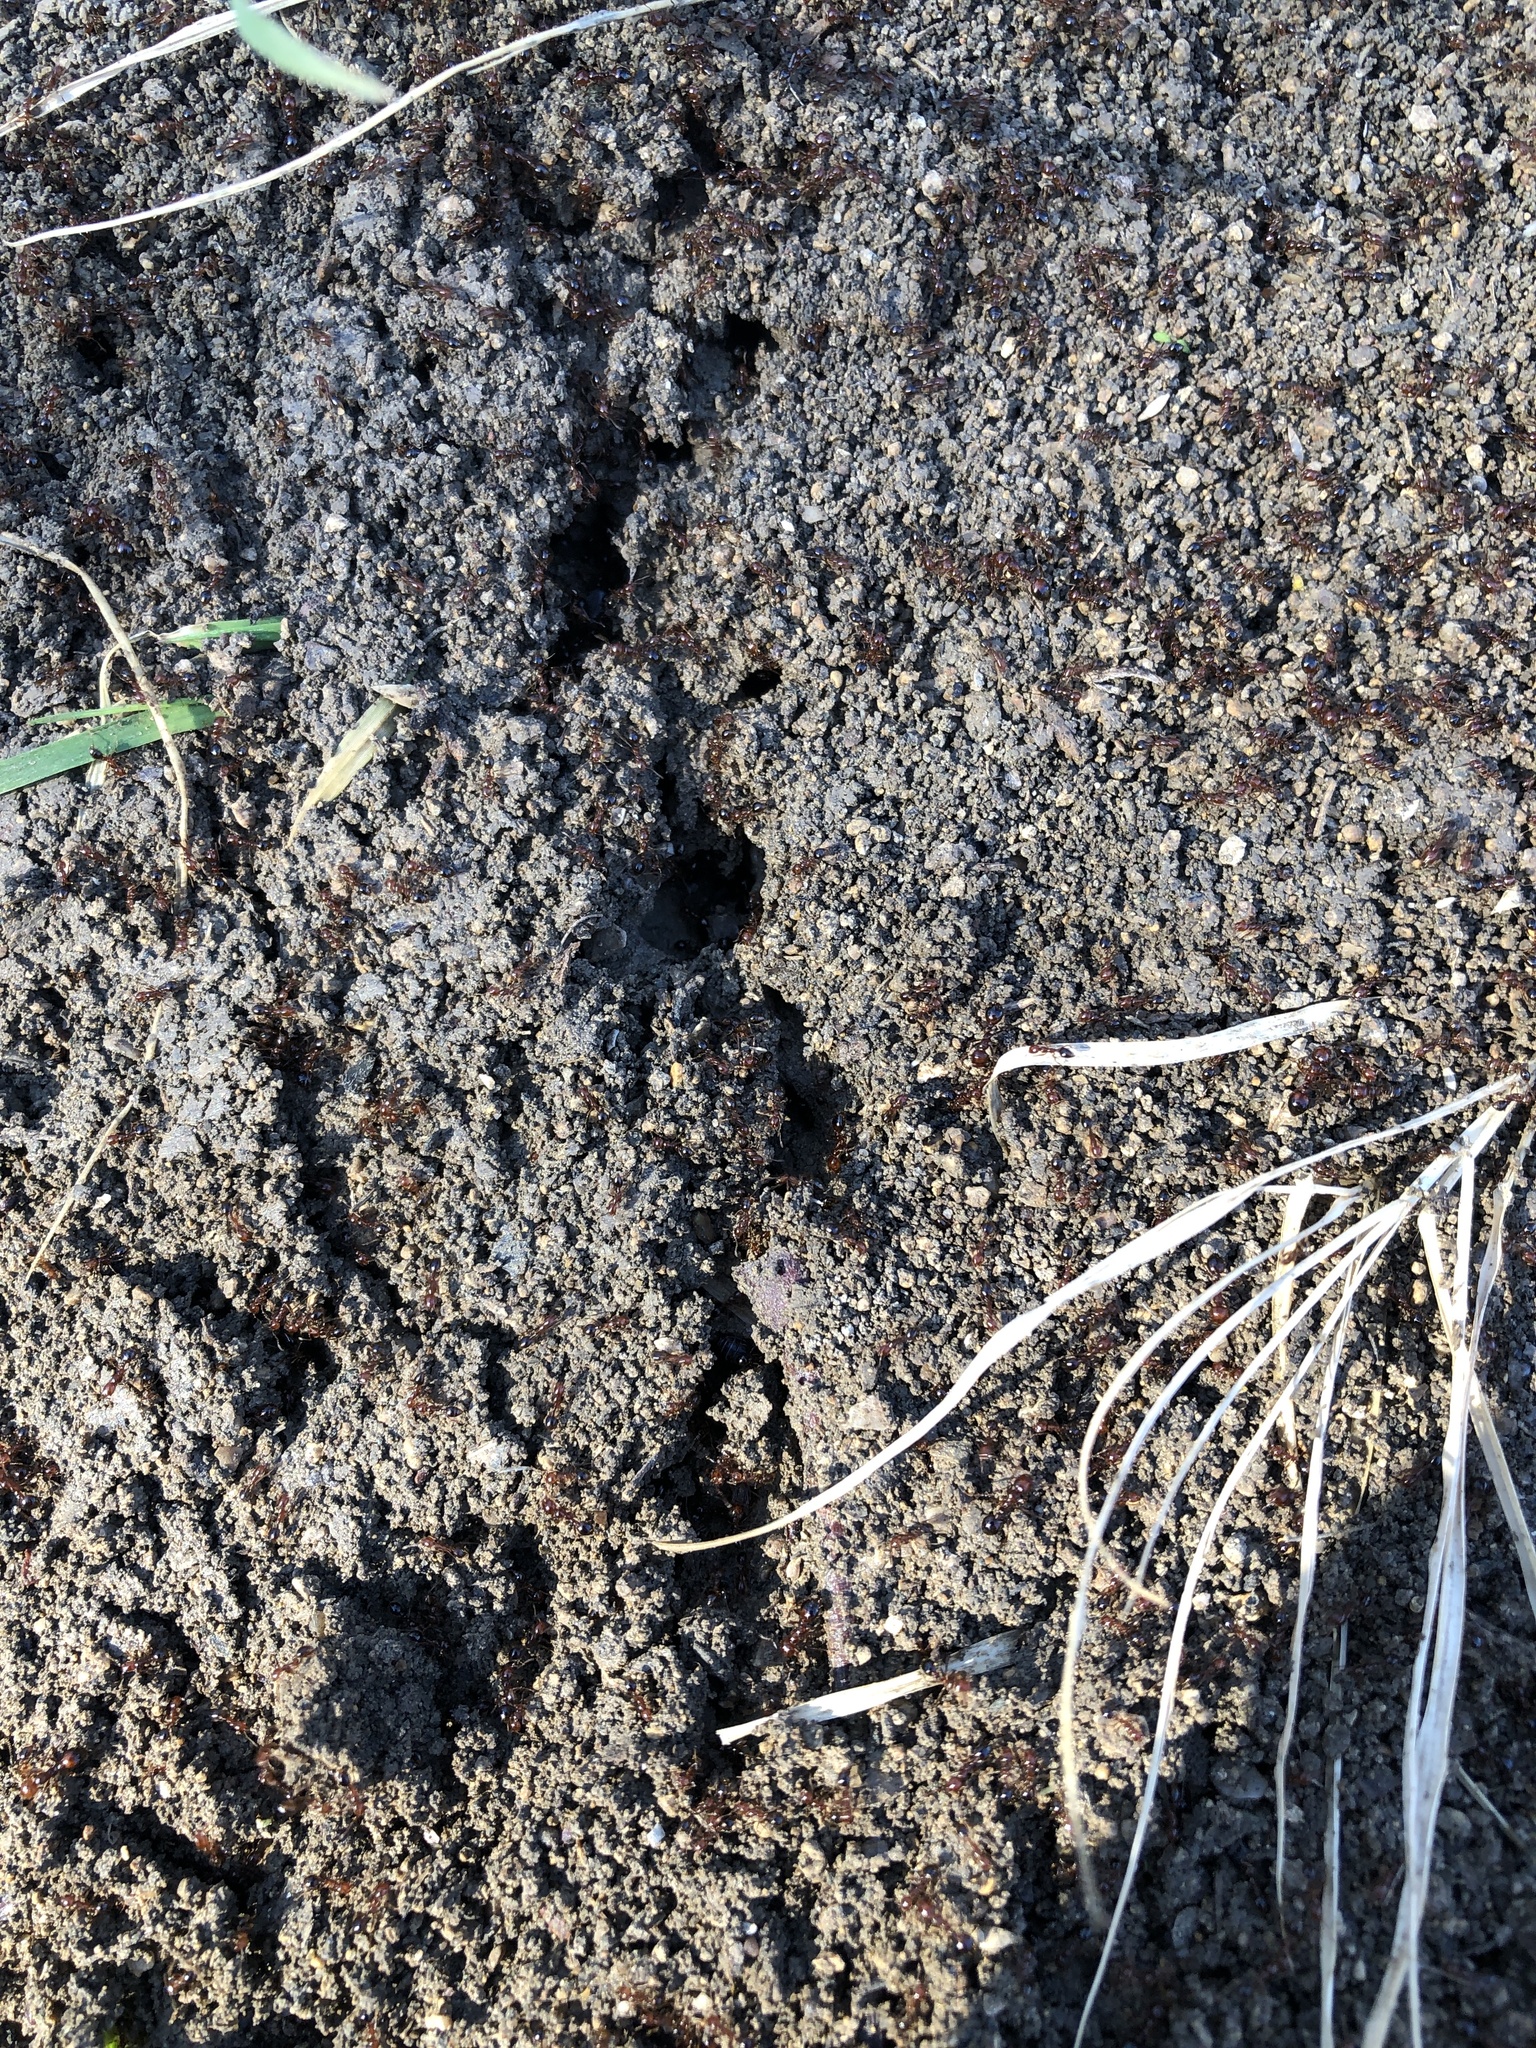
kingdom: Animalia
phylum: Arthropoda
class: Insecta
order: Hymenoptera
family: Formicidae
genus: Solenopsis
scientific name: Solenopsis invicta
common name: Red imported fire ant
